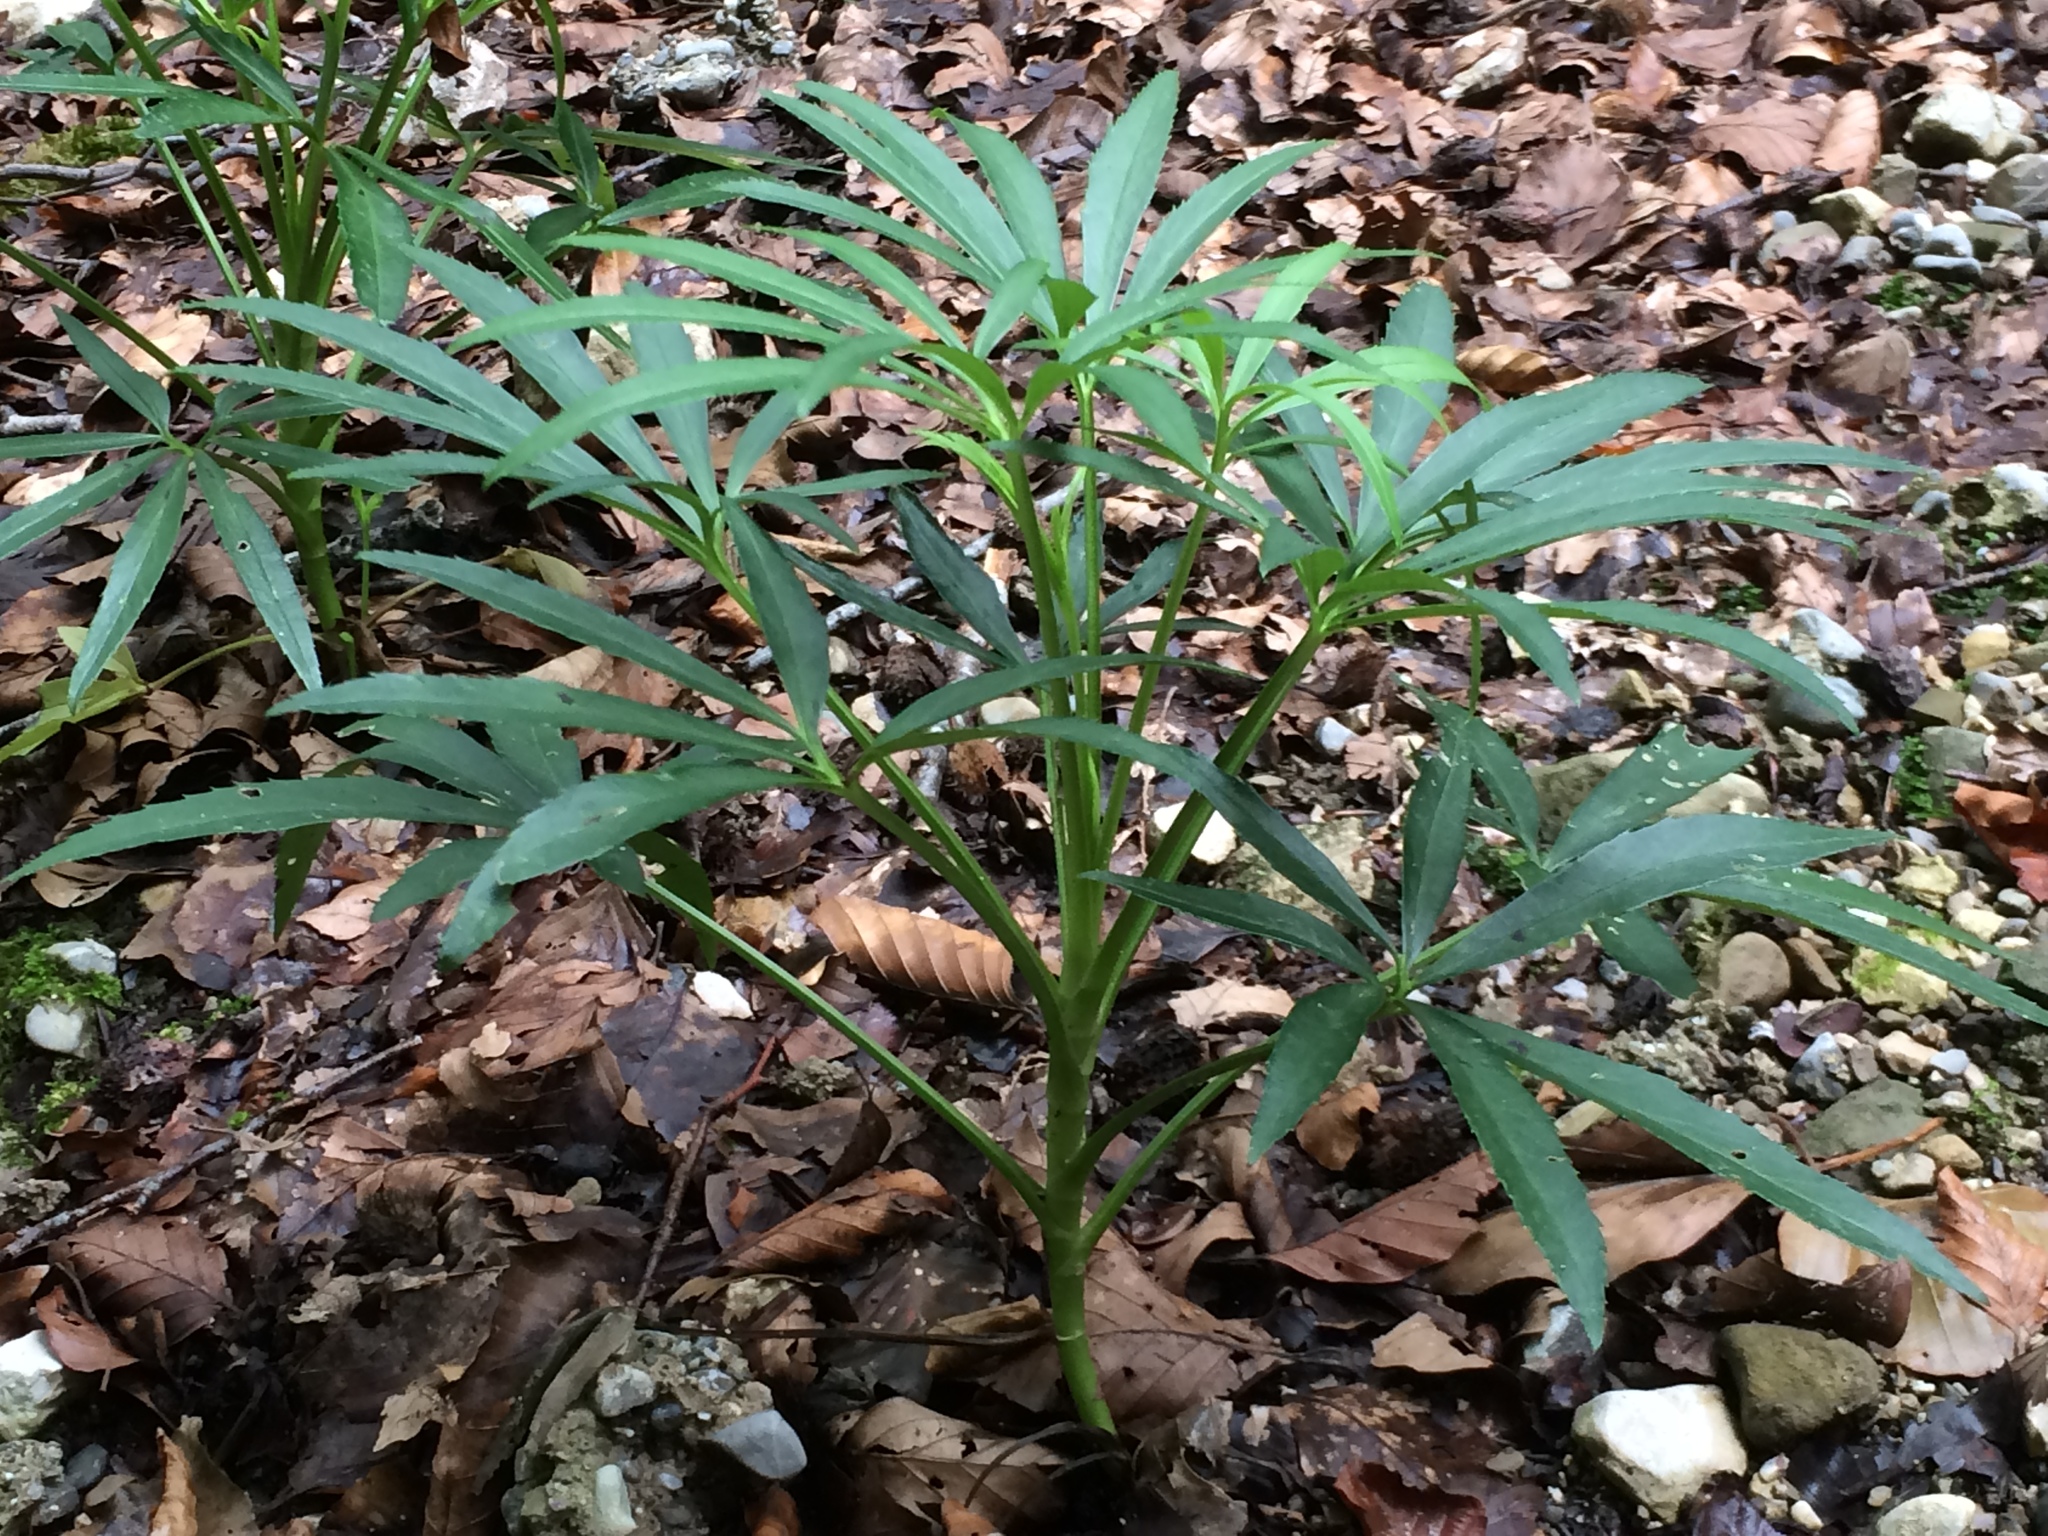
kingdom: Plantae
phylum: Tracheophyta
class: Magnoliopsida
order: Ranunculales
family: Ranunculaceae
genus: Helleborus
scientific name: Helleborus foetidus
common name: Stinking hellebore
